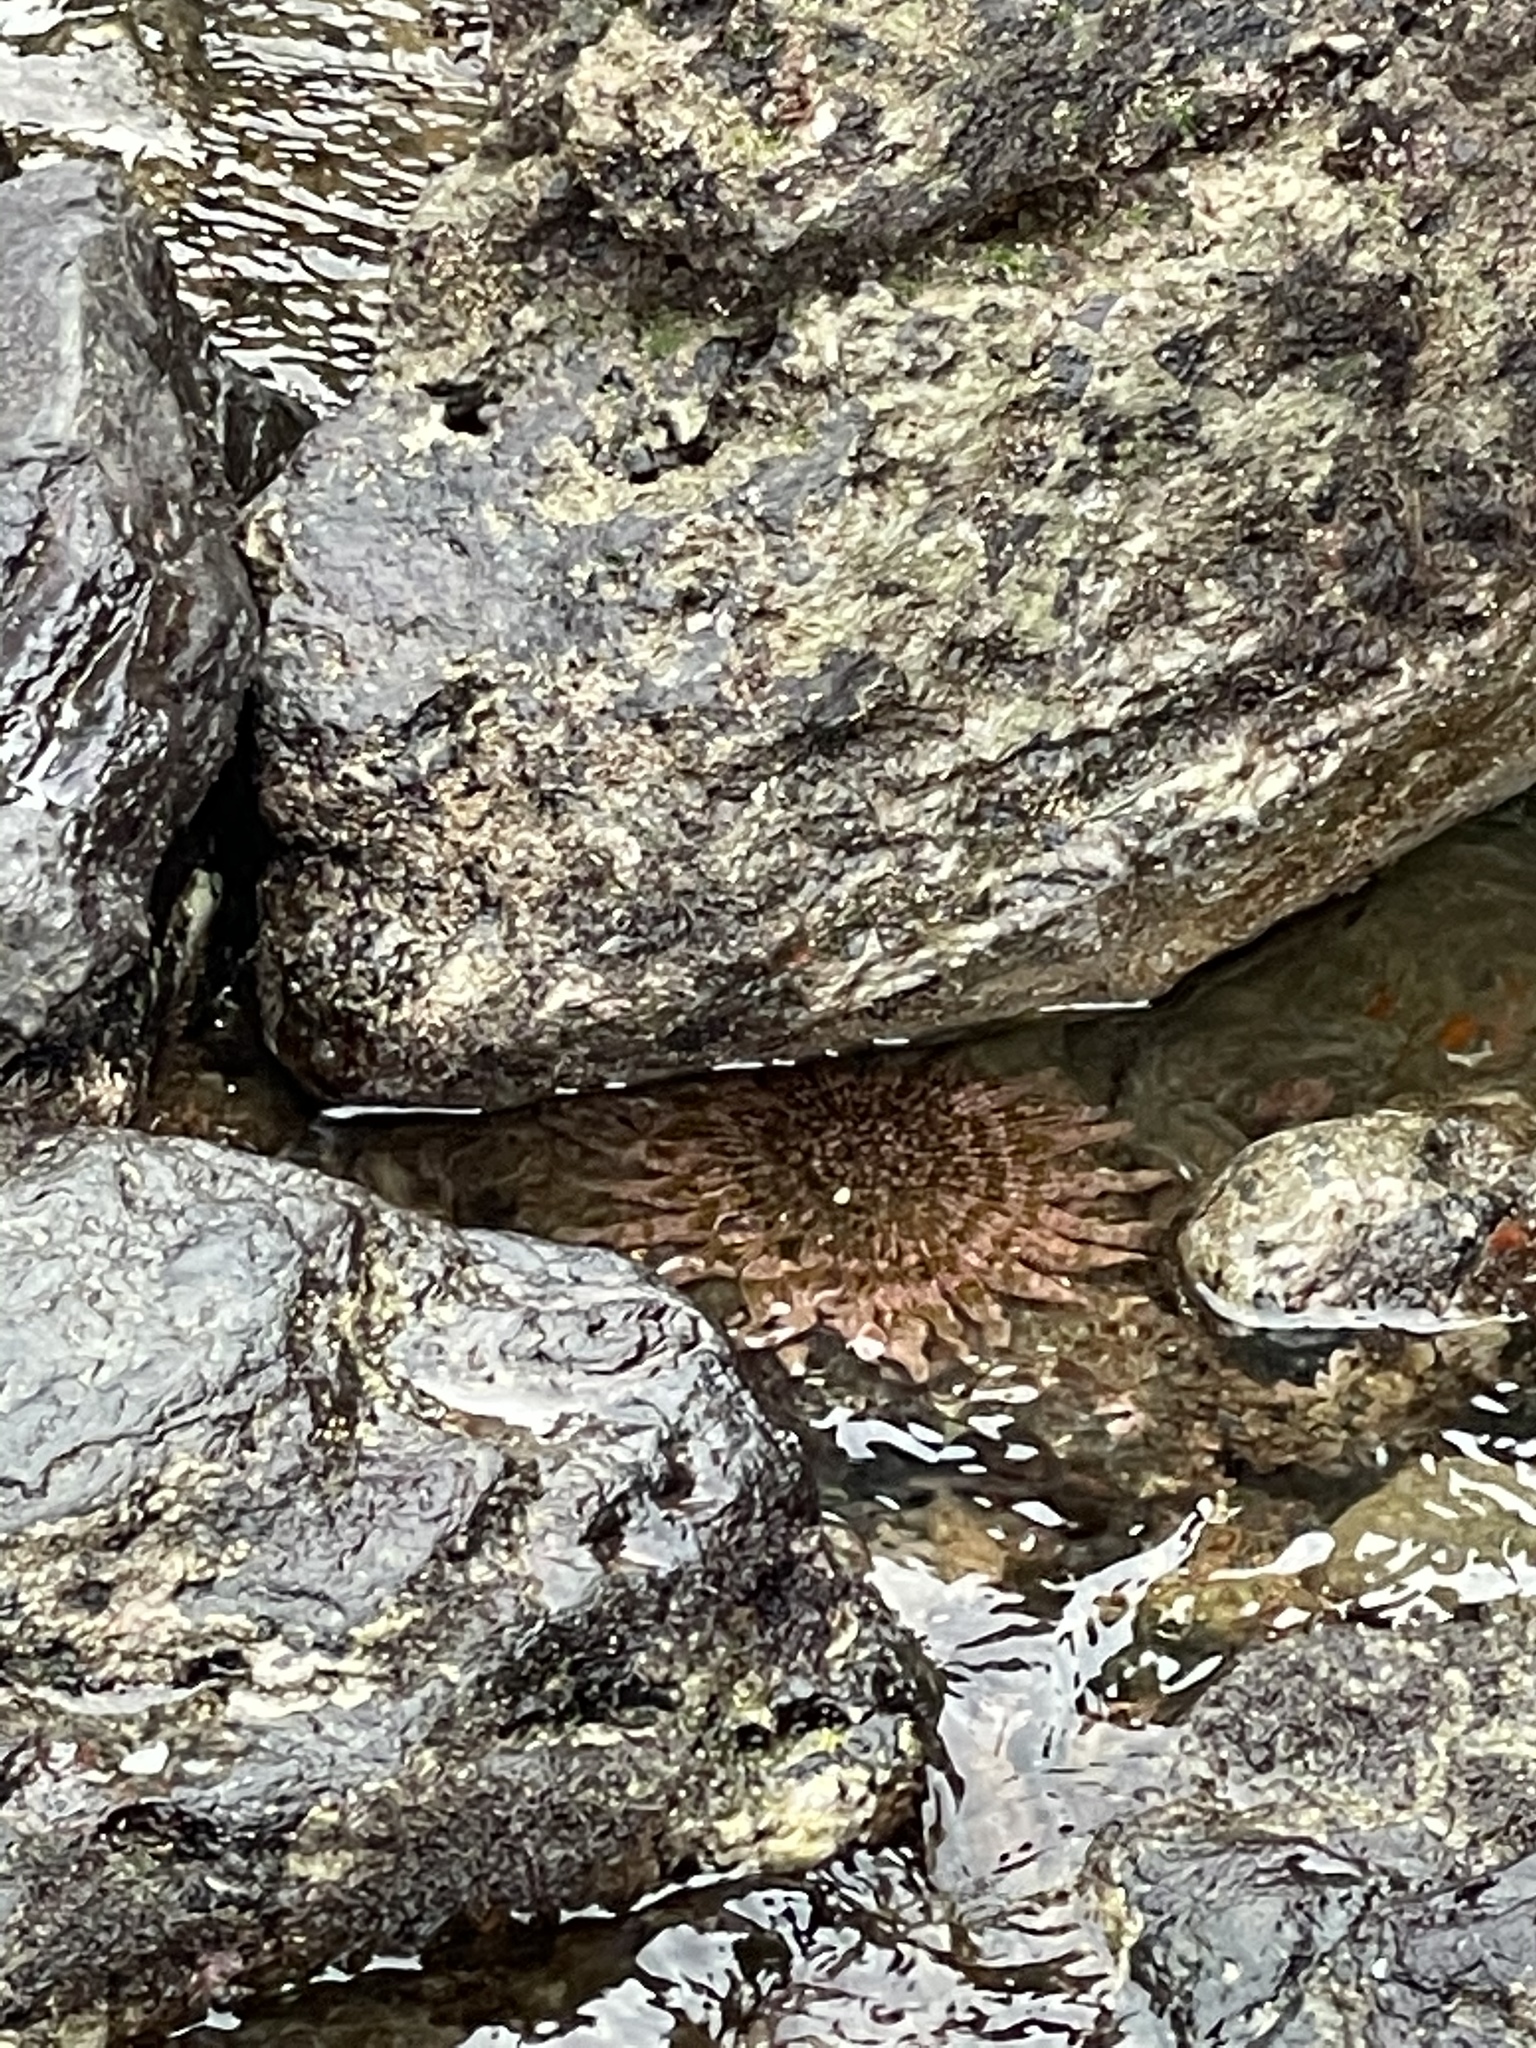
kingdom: Animalia
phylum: Echinodermata
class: Asteroidea
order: Forcipulatida
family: Heliasteridae
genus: Heliaster
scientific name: Heliaster kubiniji
